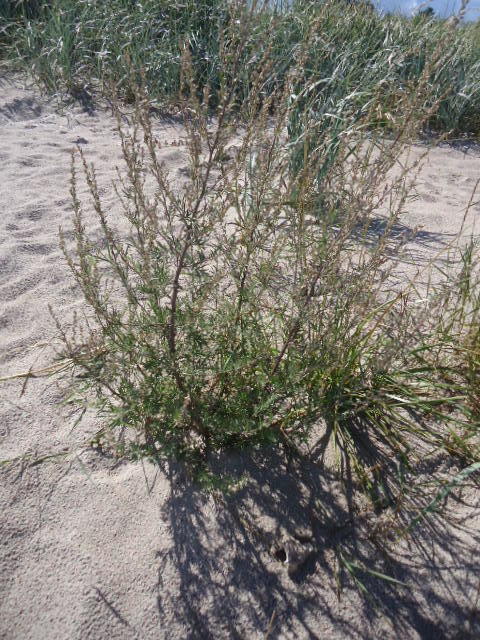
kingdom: Plantae
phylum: Tracheophyta
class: Magnoliopsida
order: Asterales
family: Asteraceae
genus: Artemisia
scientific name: Artemisia vulgaris
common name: Mugwort
